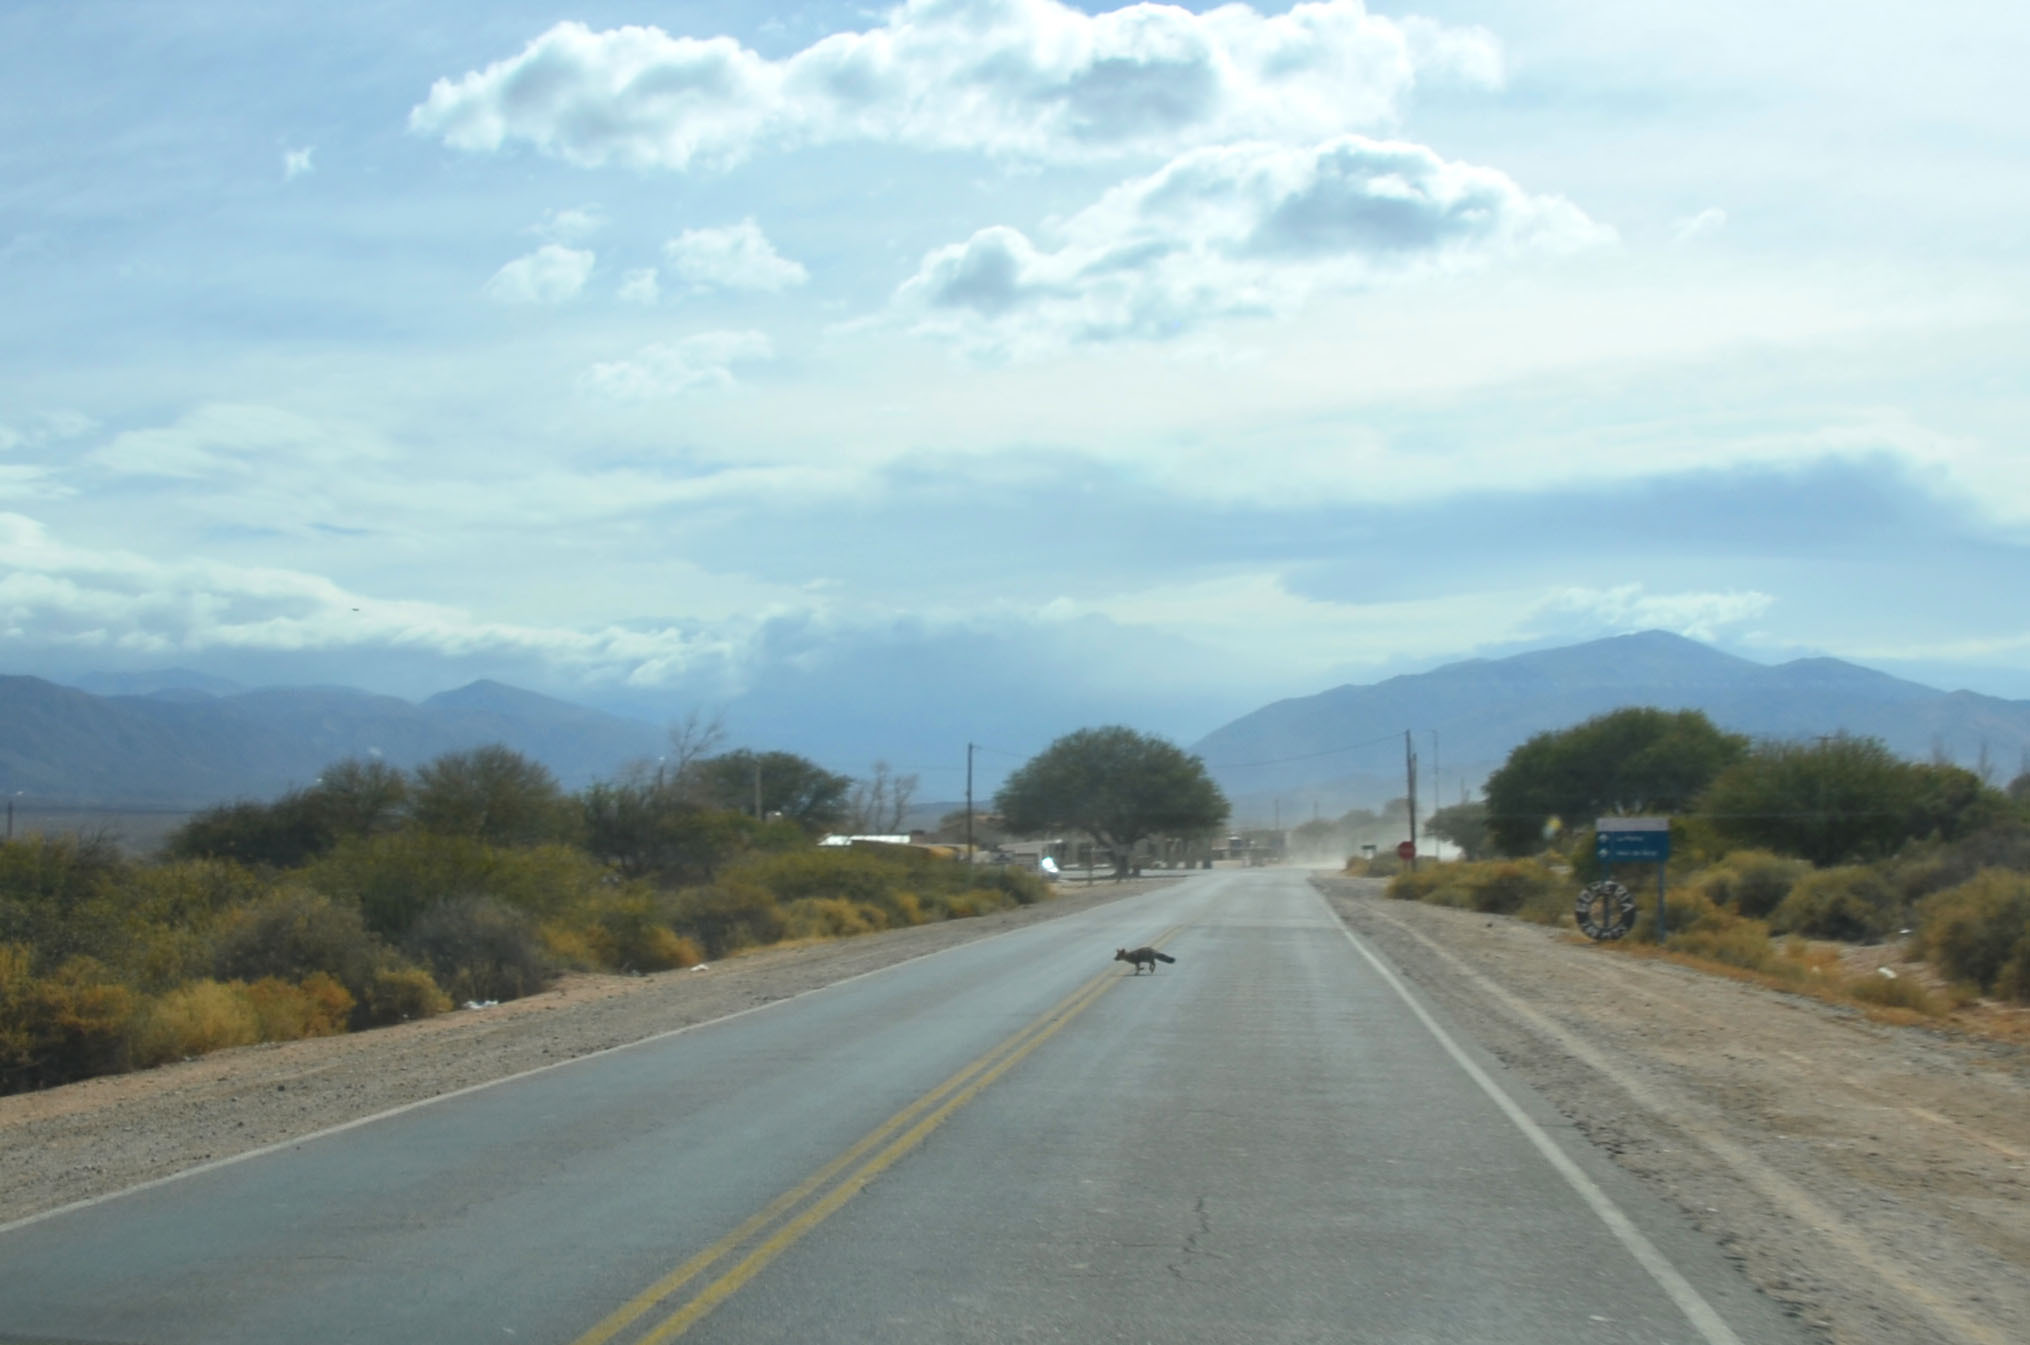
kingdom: Animalia
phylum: Chordata
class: Mammalia
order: Carnivora
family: Canidae
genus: Lycalopex
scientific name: Lycalopex gymnocercus
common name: Pampas fox
